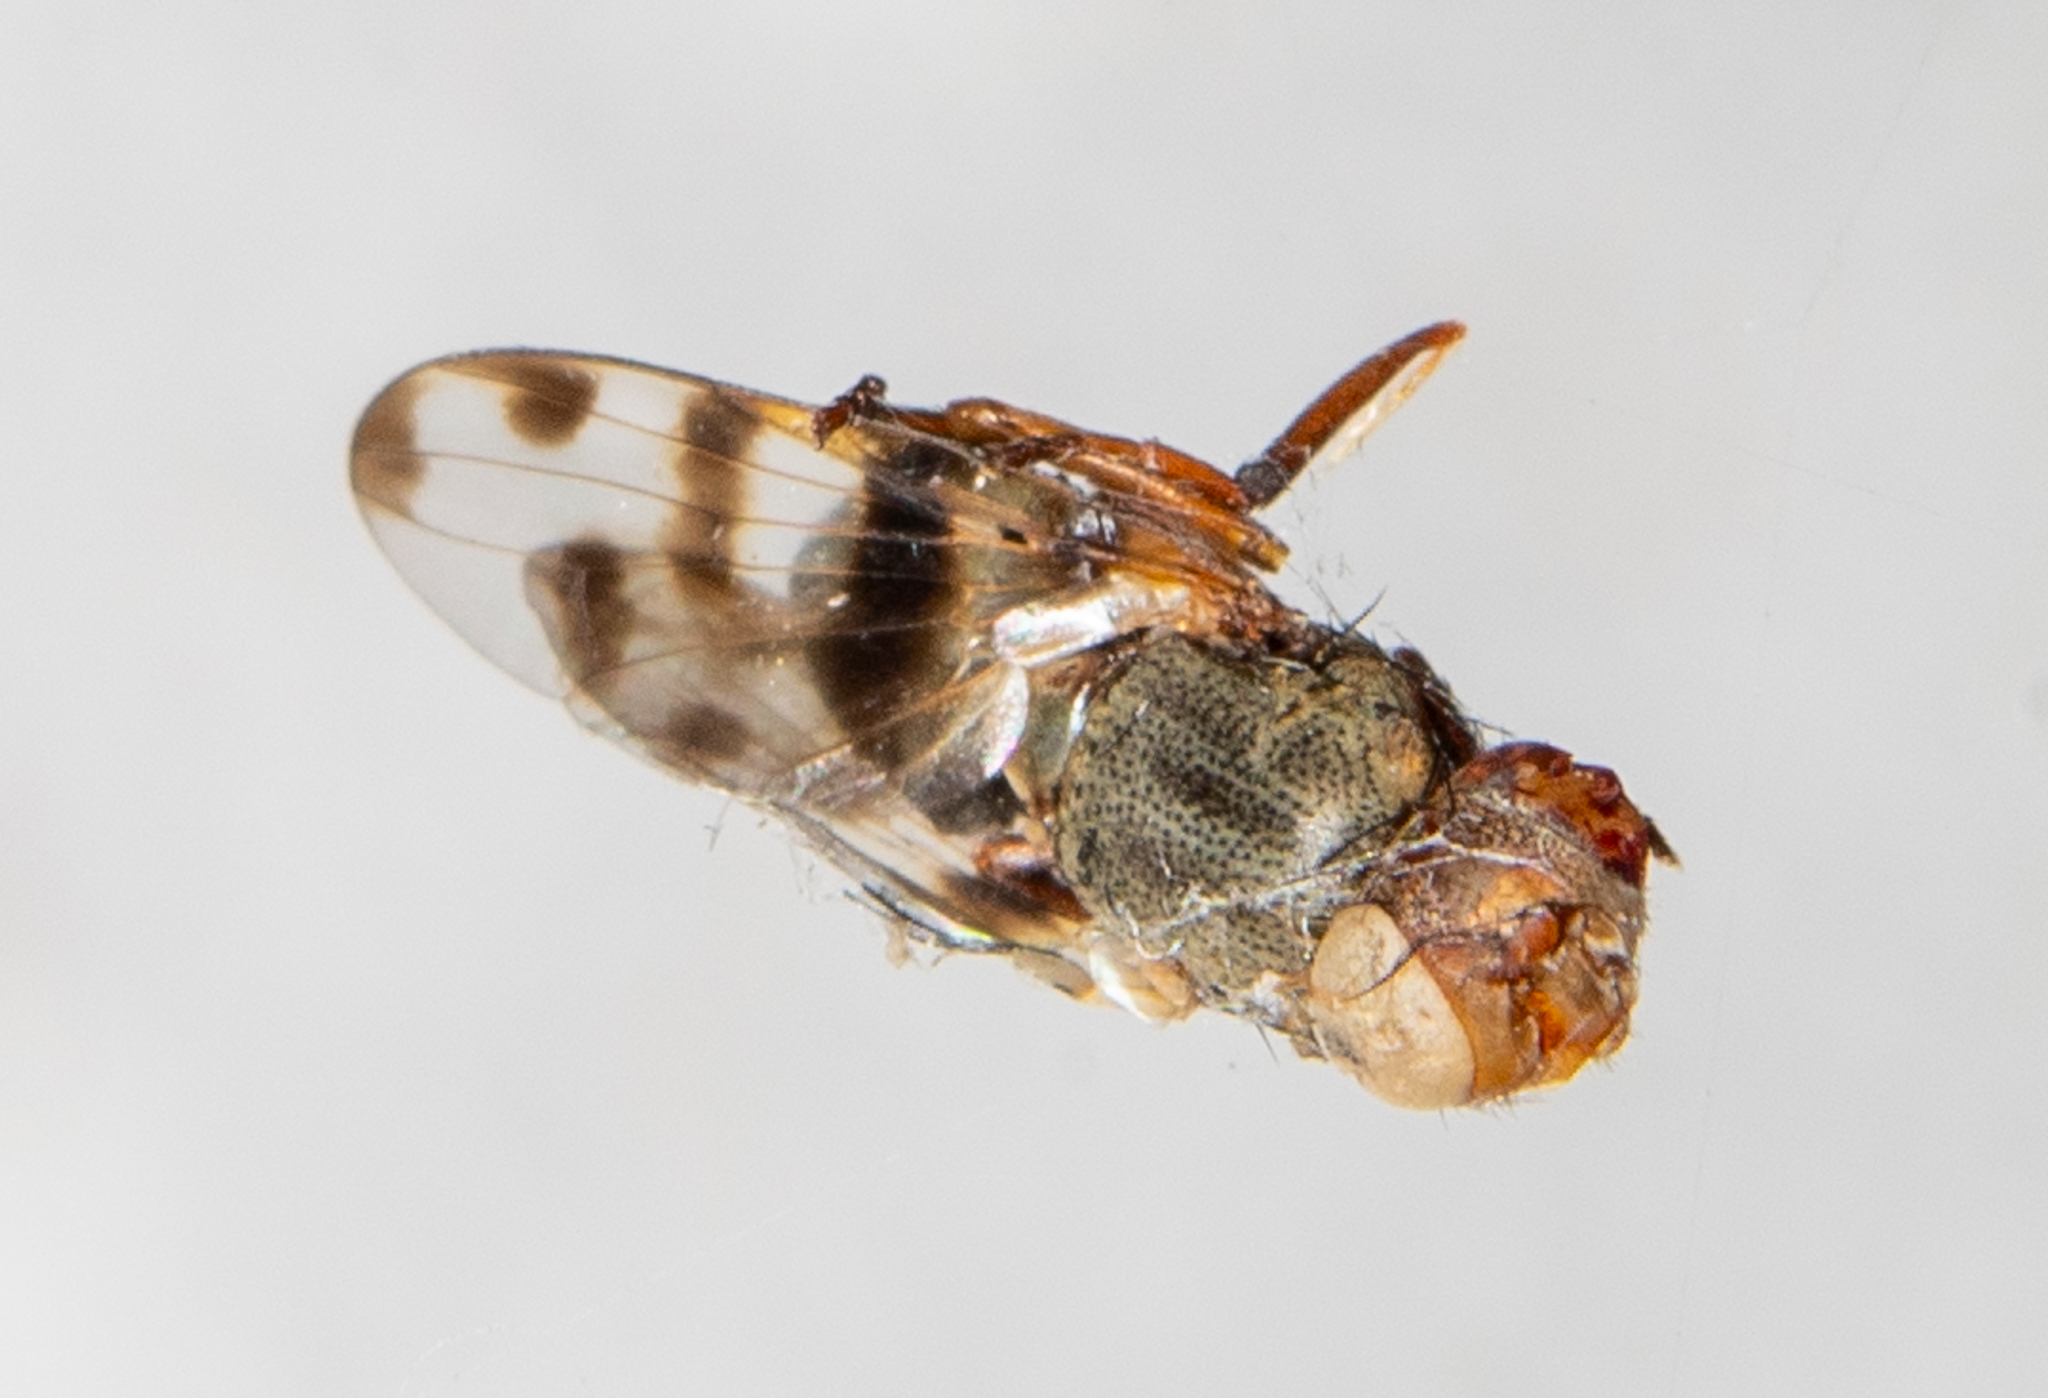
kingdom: Animalia
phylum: Arthropoda
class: Insecta
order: Diptera
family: Ulidiidae
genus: Ceroxys
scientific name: Ceroxys latiusculus
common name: Picture-winged fly
